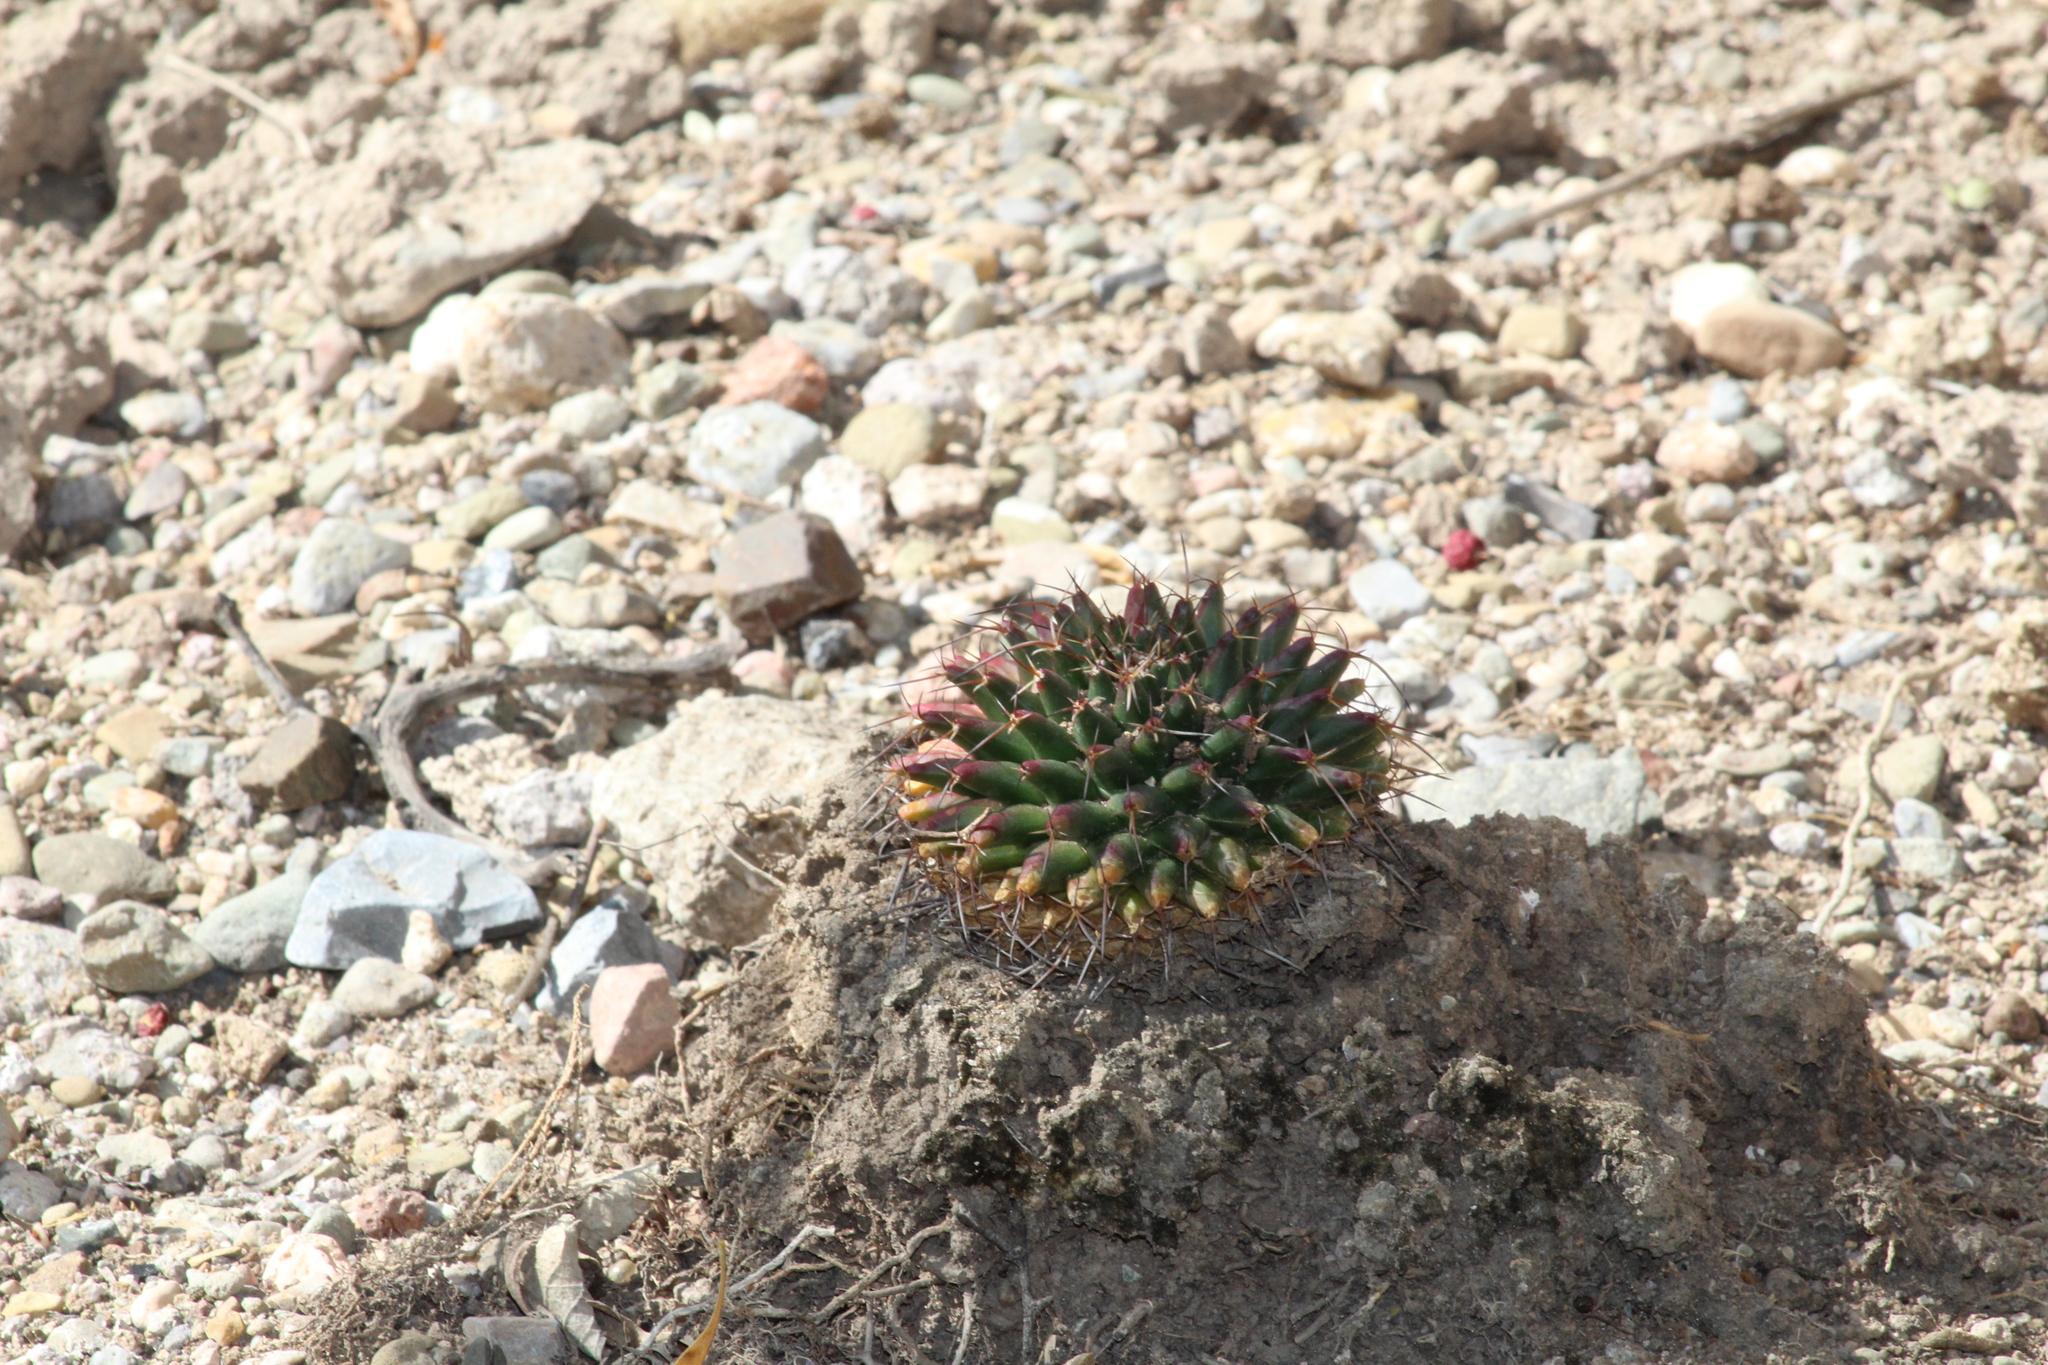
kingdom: Plantae
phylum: Tracheophyta
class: Magnoliopsida
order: Caryophyllales
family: Cactaceae
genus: Mammillaria
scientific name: Mammillaria magnimamma
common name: Mexican pincushion
